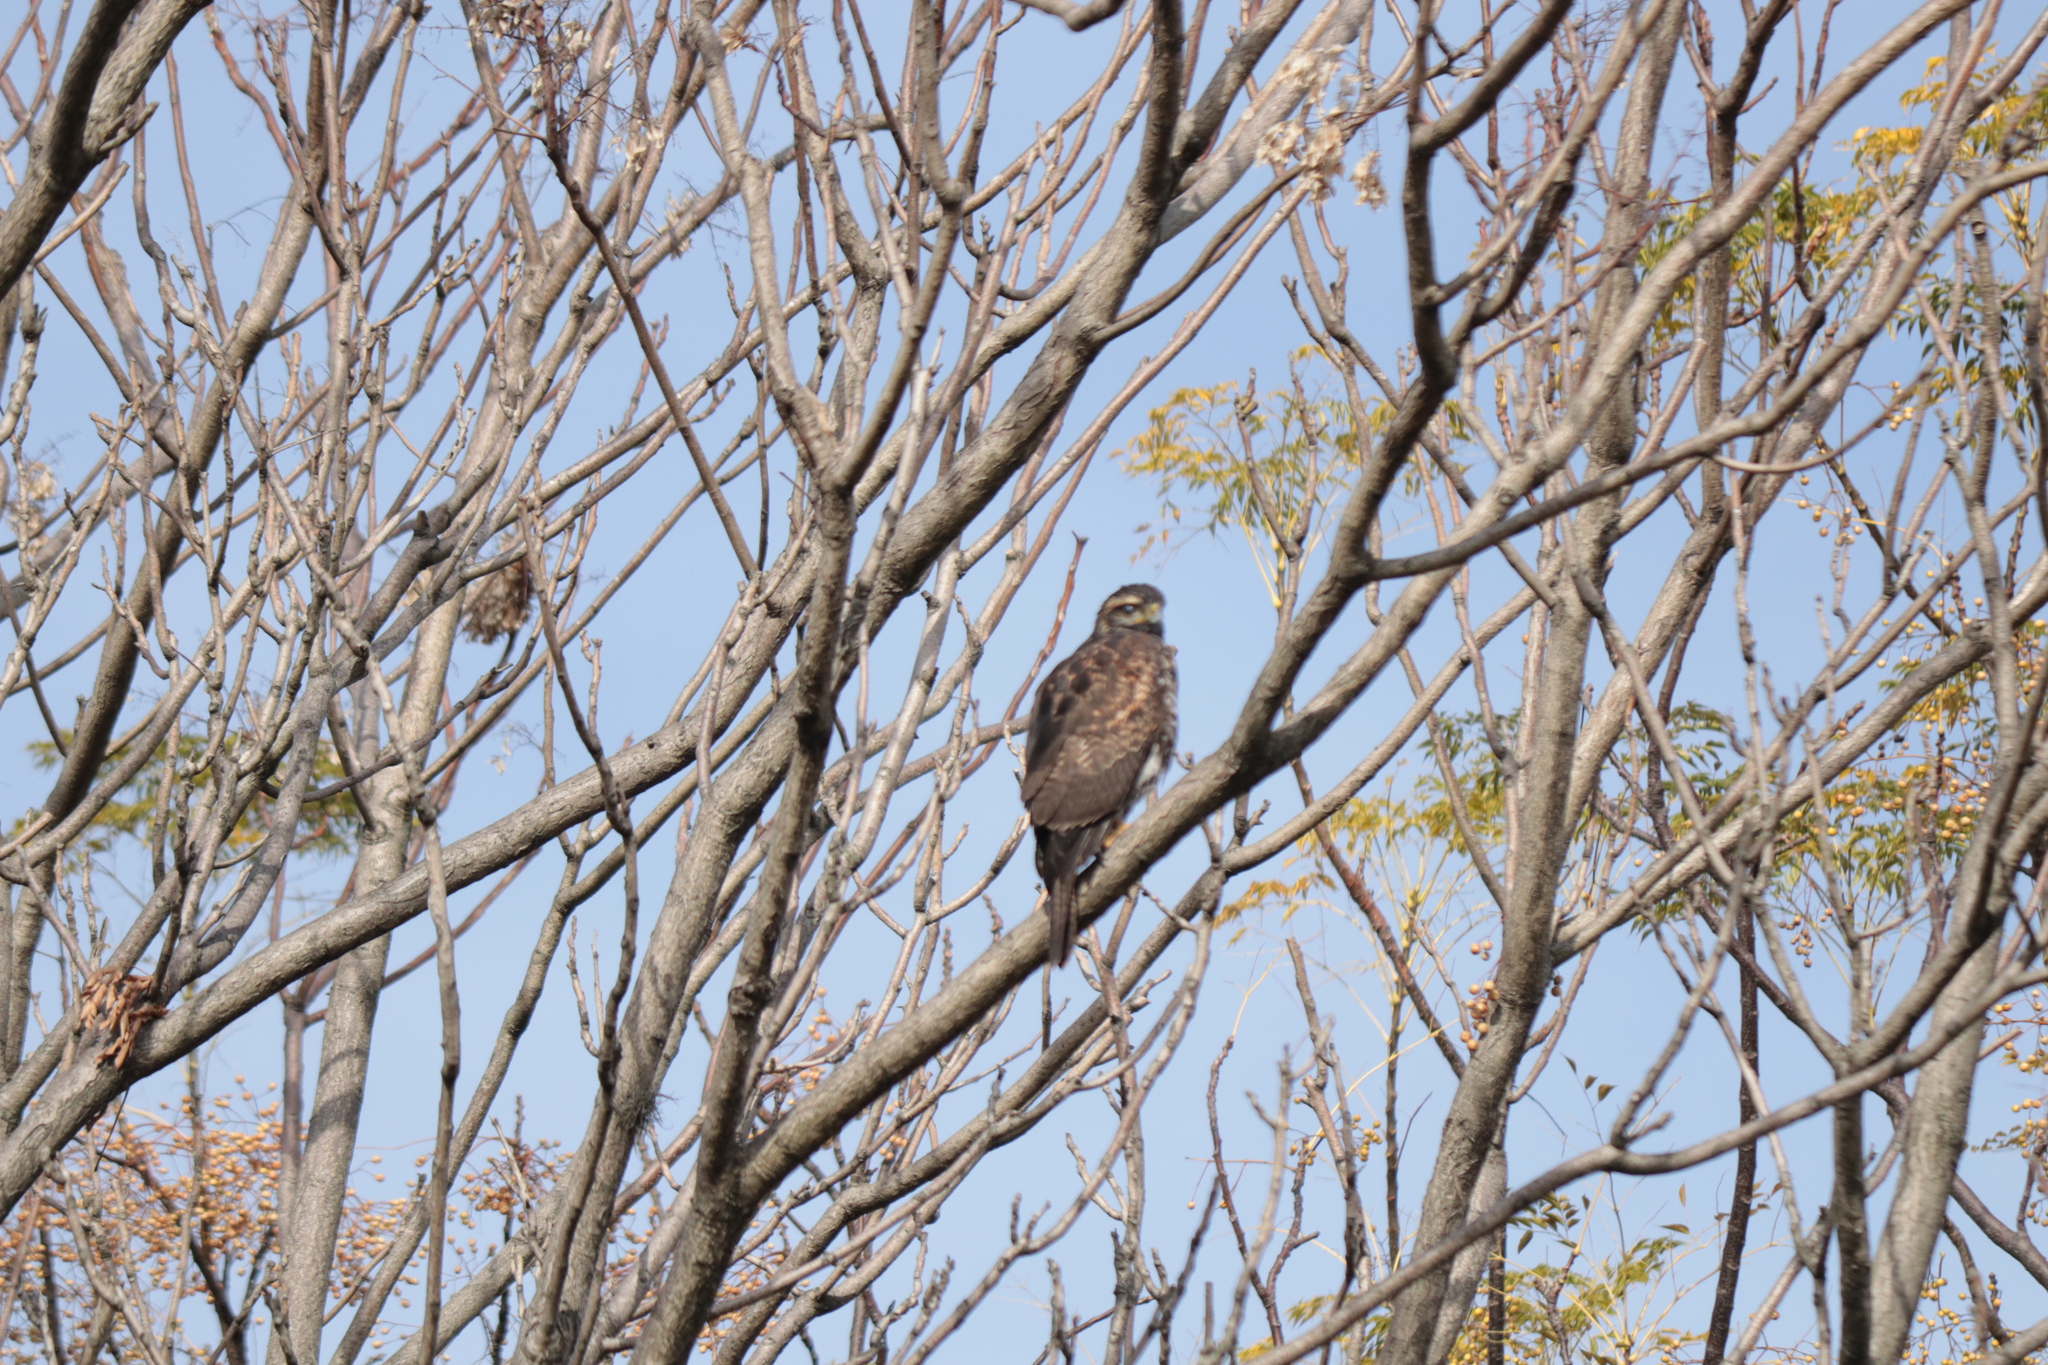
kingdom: Animalia
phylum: Chordata
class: Aves
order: Accipitriformes
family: Accipitridae
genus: Parabuteo
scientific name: Parabuteo unicinctus
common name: Harris's hawk
